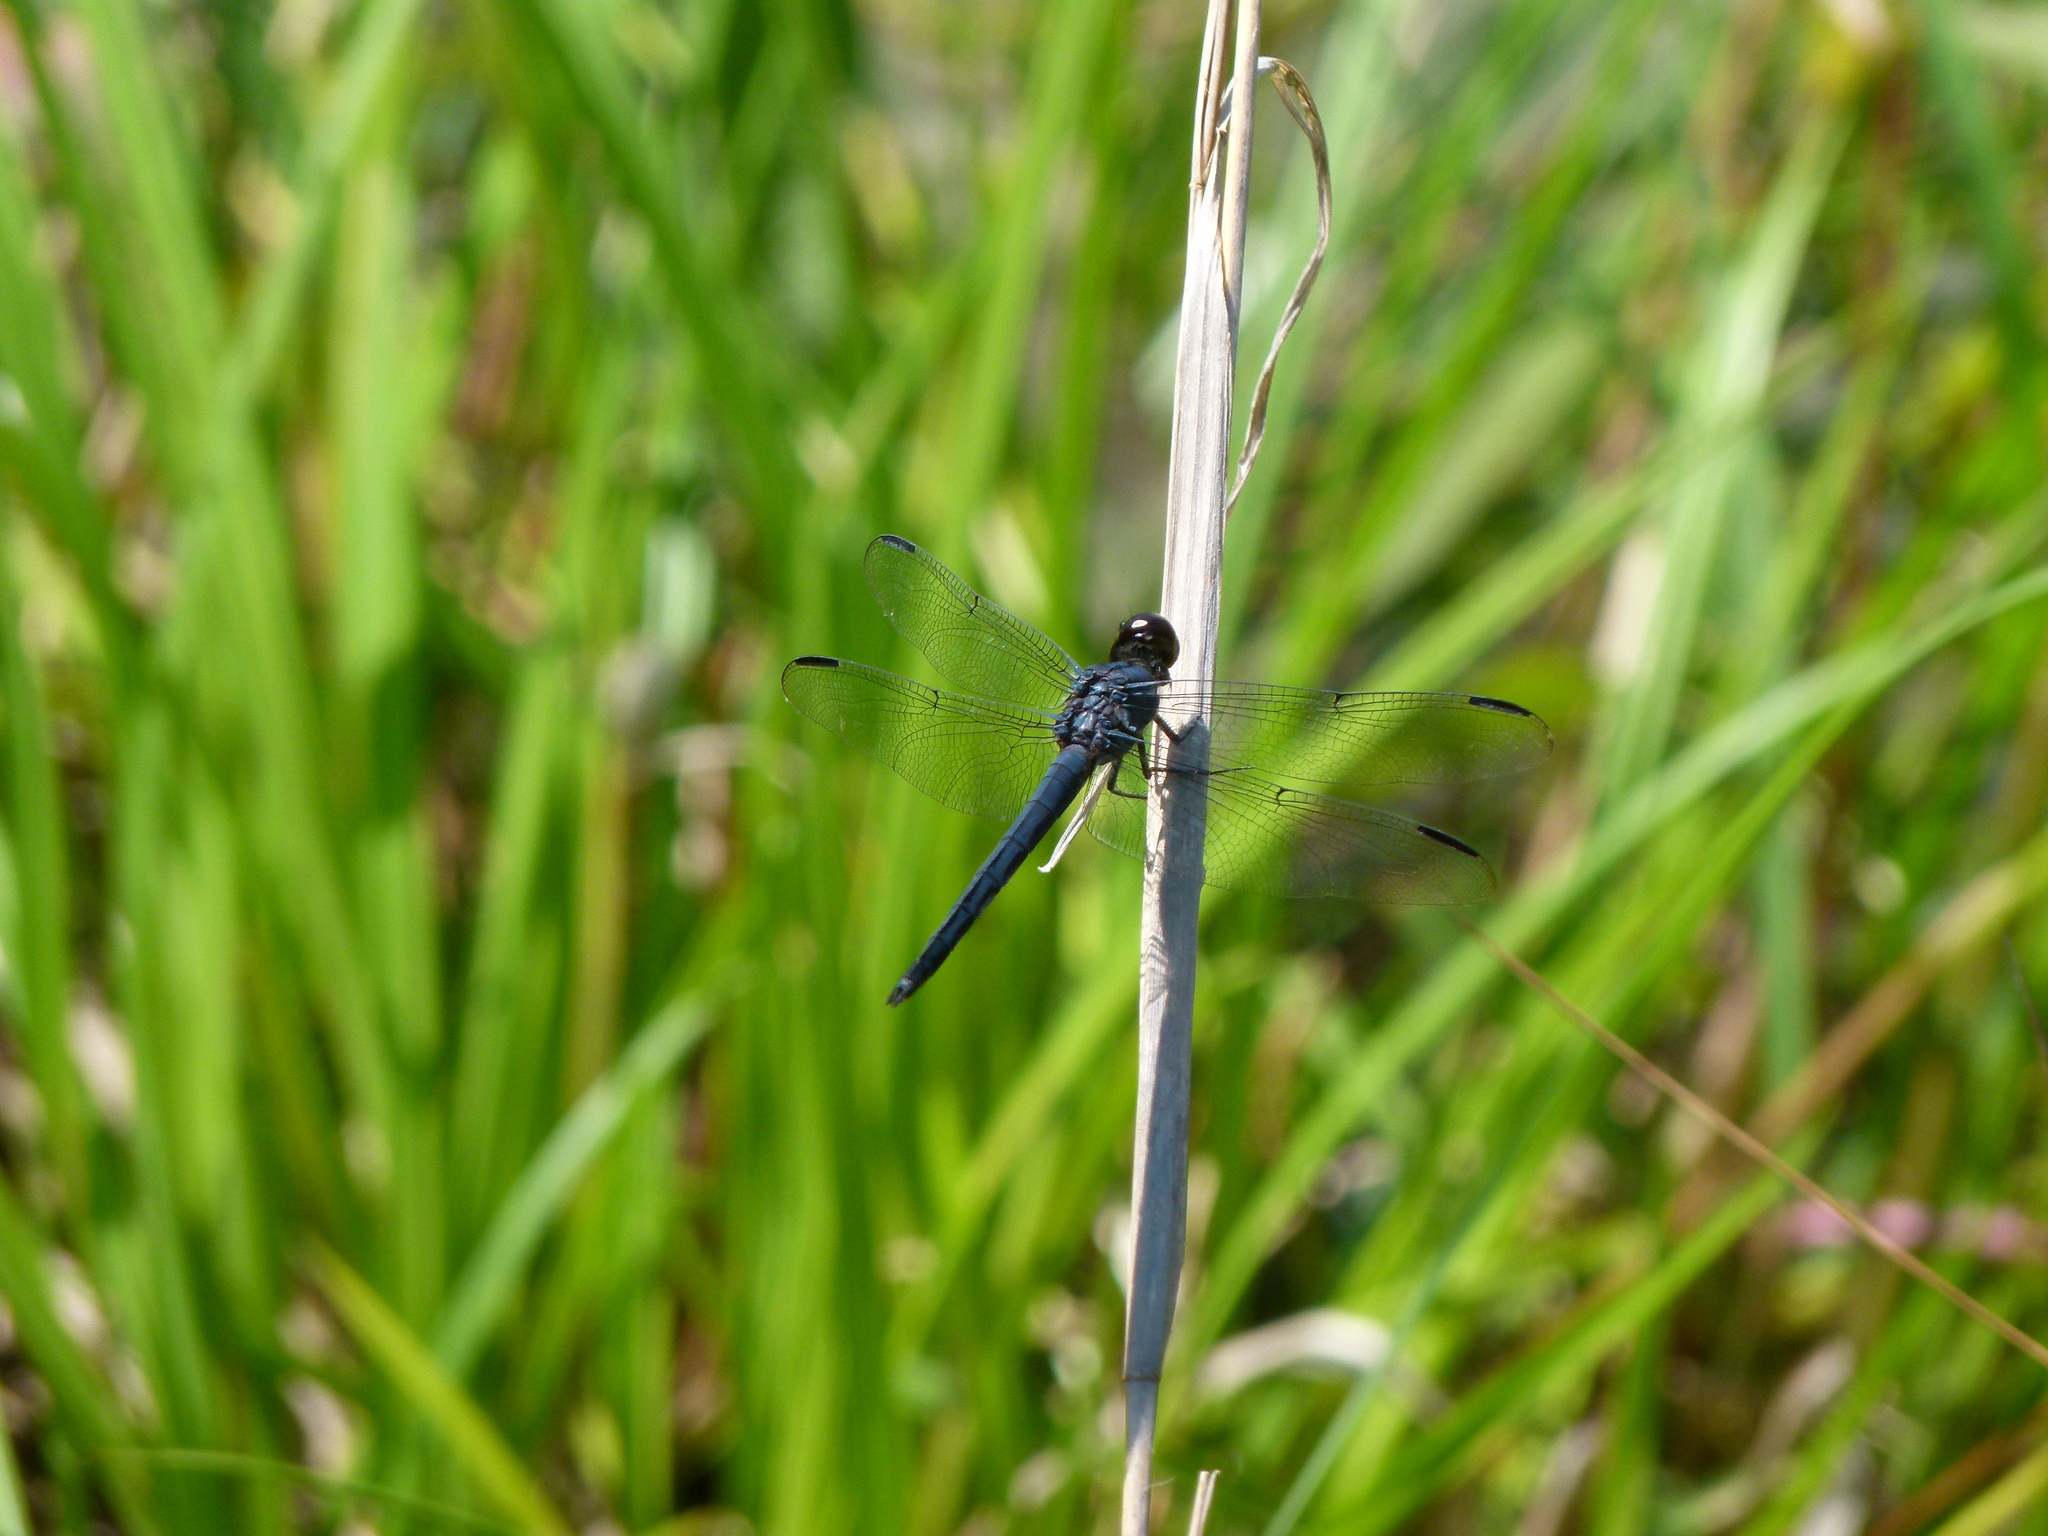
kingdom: Animalia
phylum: Arthropoda
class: Insecta
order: Odonata
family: Libellulidae
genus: Libellula
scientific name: Libellula incesta
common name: Slaty skimmer
